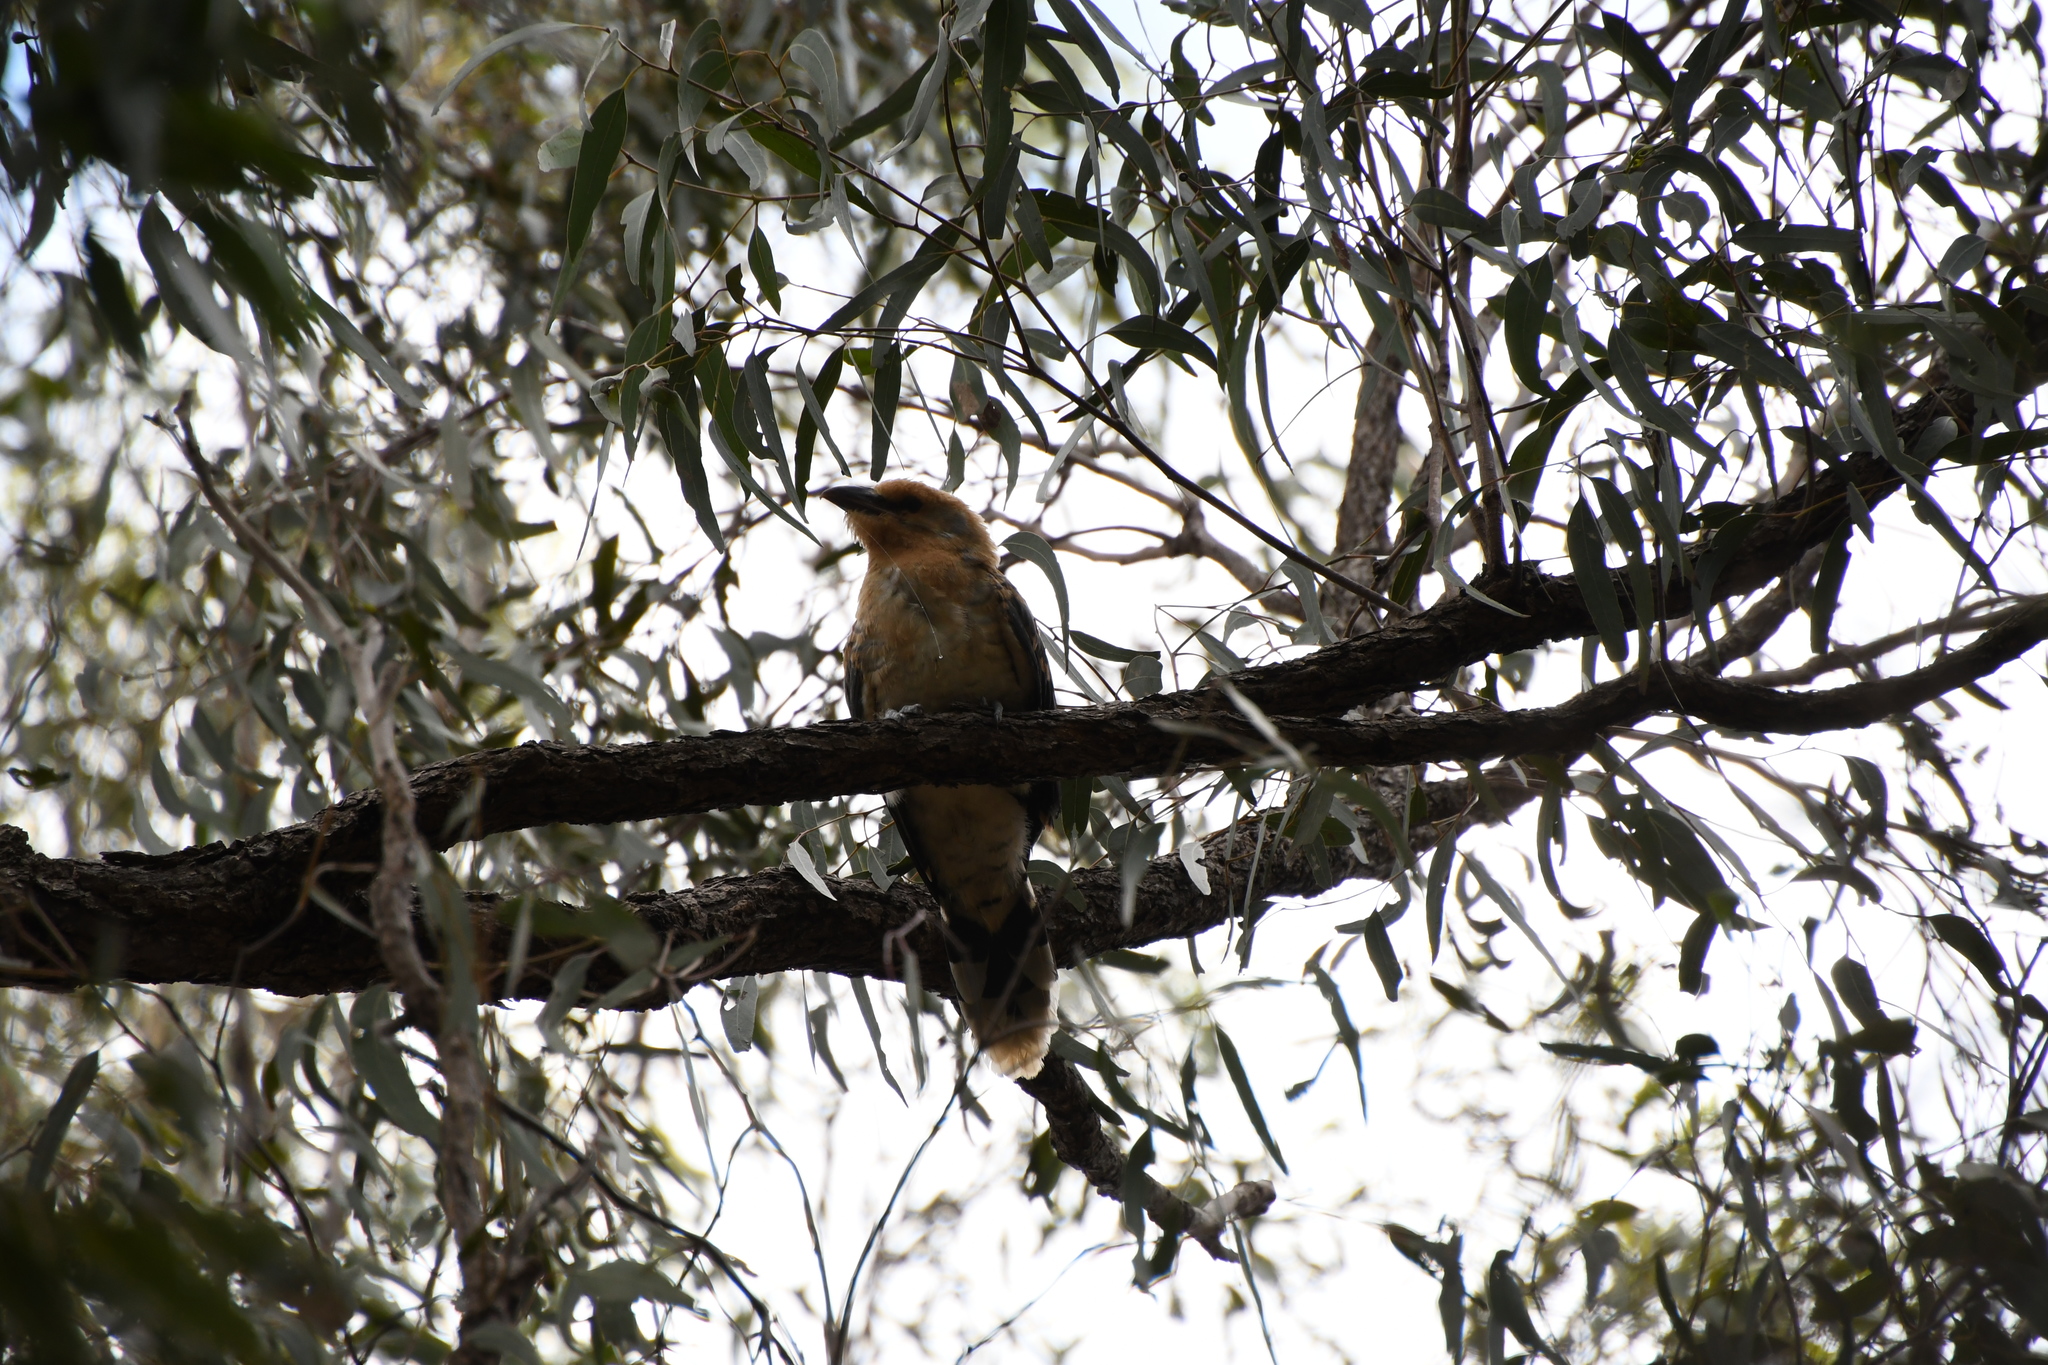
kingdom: Animalia
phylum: Chordata
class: Aves
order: Cuculiformes
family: Cuculidae
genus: Scythrops
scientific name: Scythrops novaehollandiae
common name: Channel-billed cuckoo
